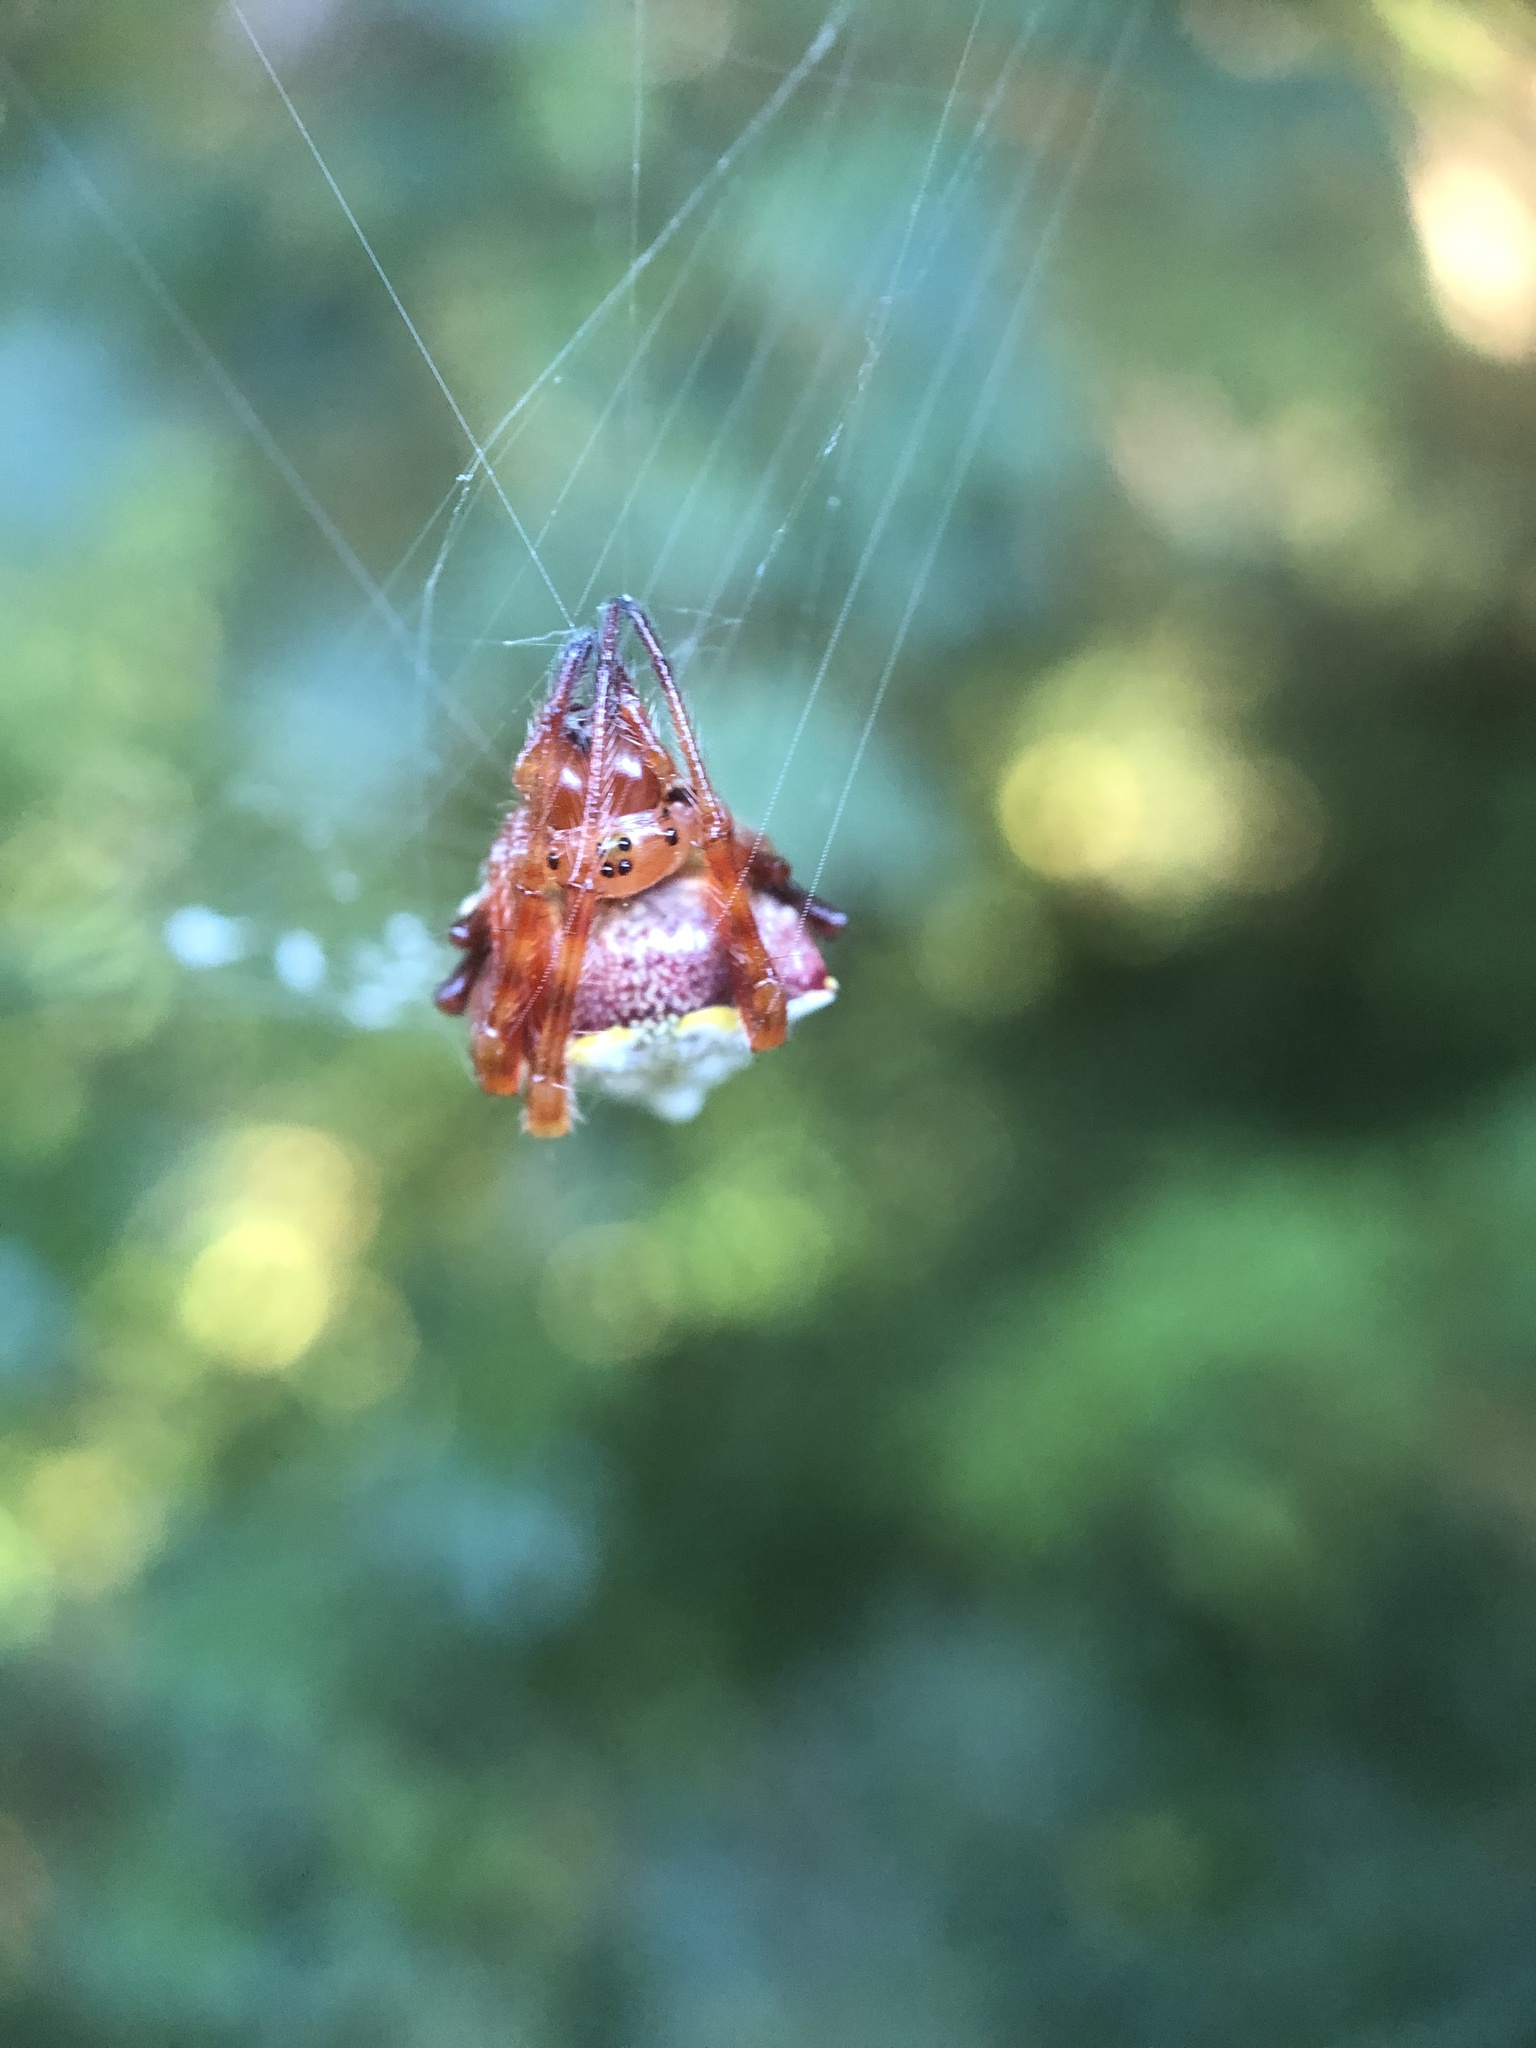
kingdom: Animalia
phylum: Arthropoda
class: Arachnida
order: Araneae
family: Araneidae
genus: Verrucosa
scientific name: Verrucosa arenata
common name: Orb weavers
